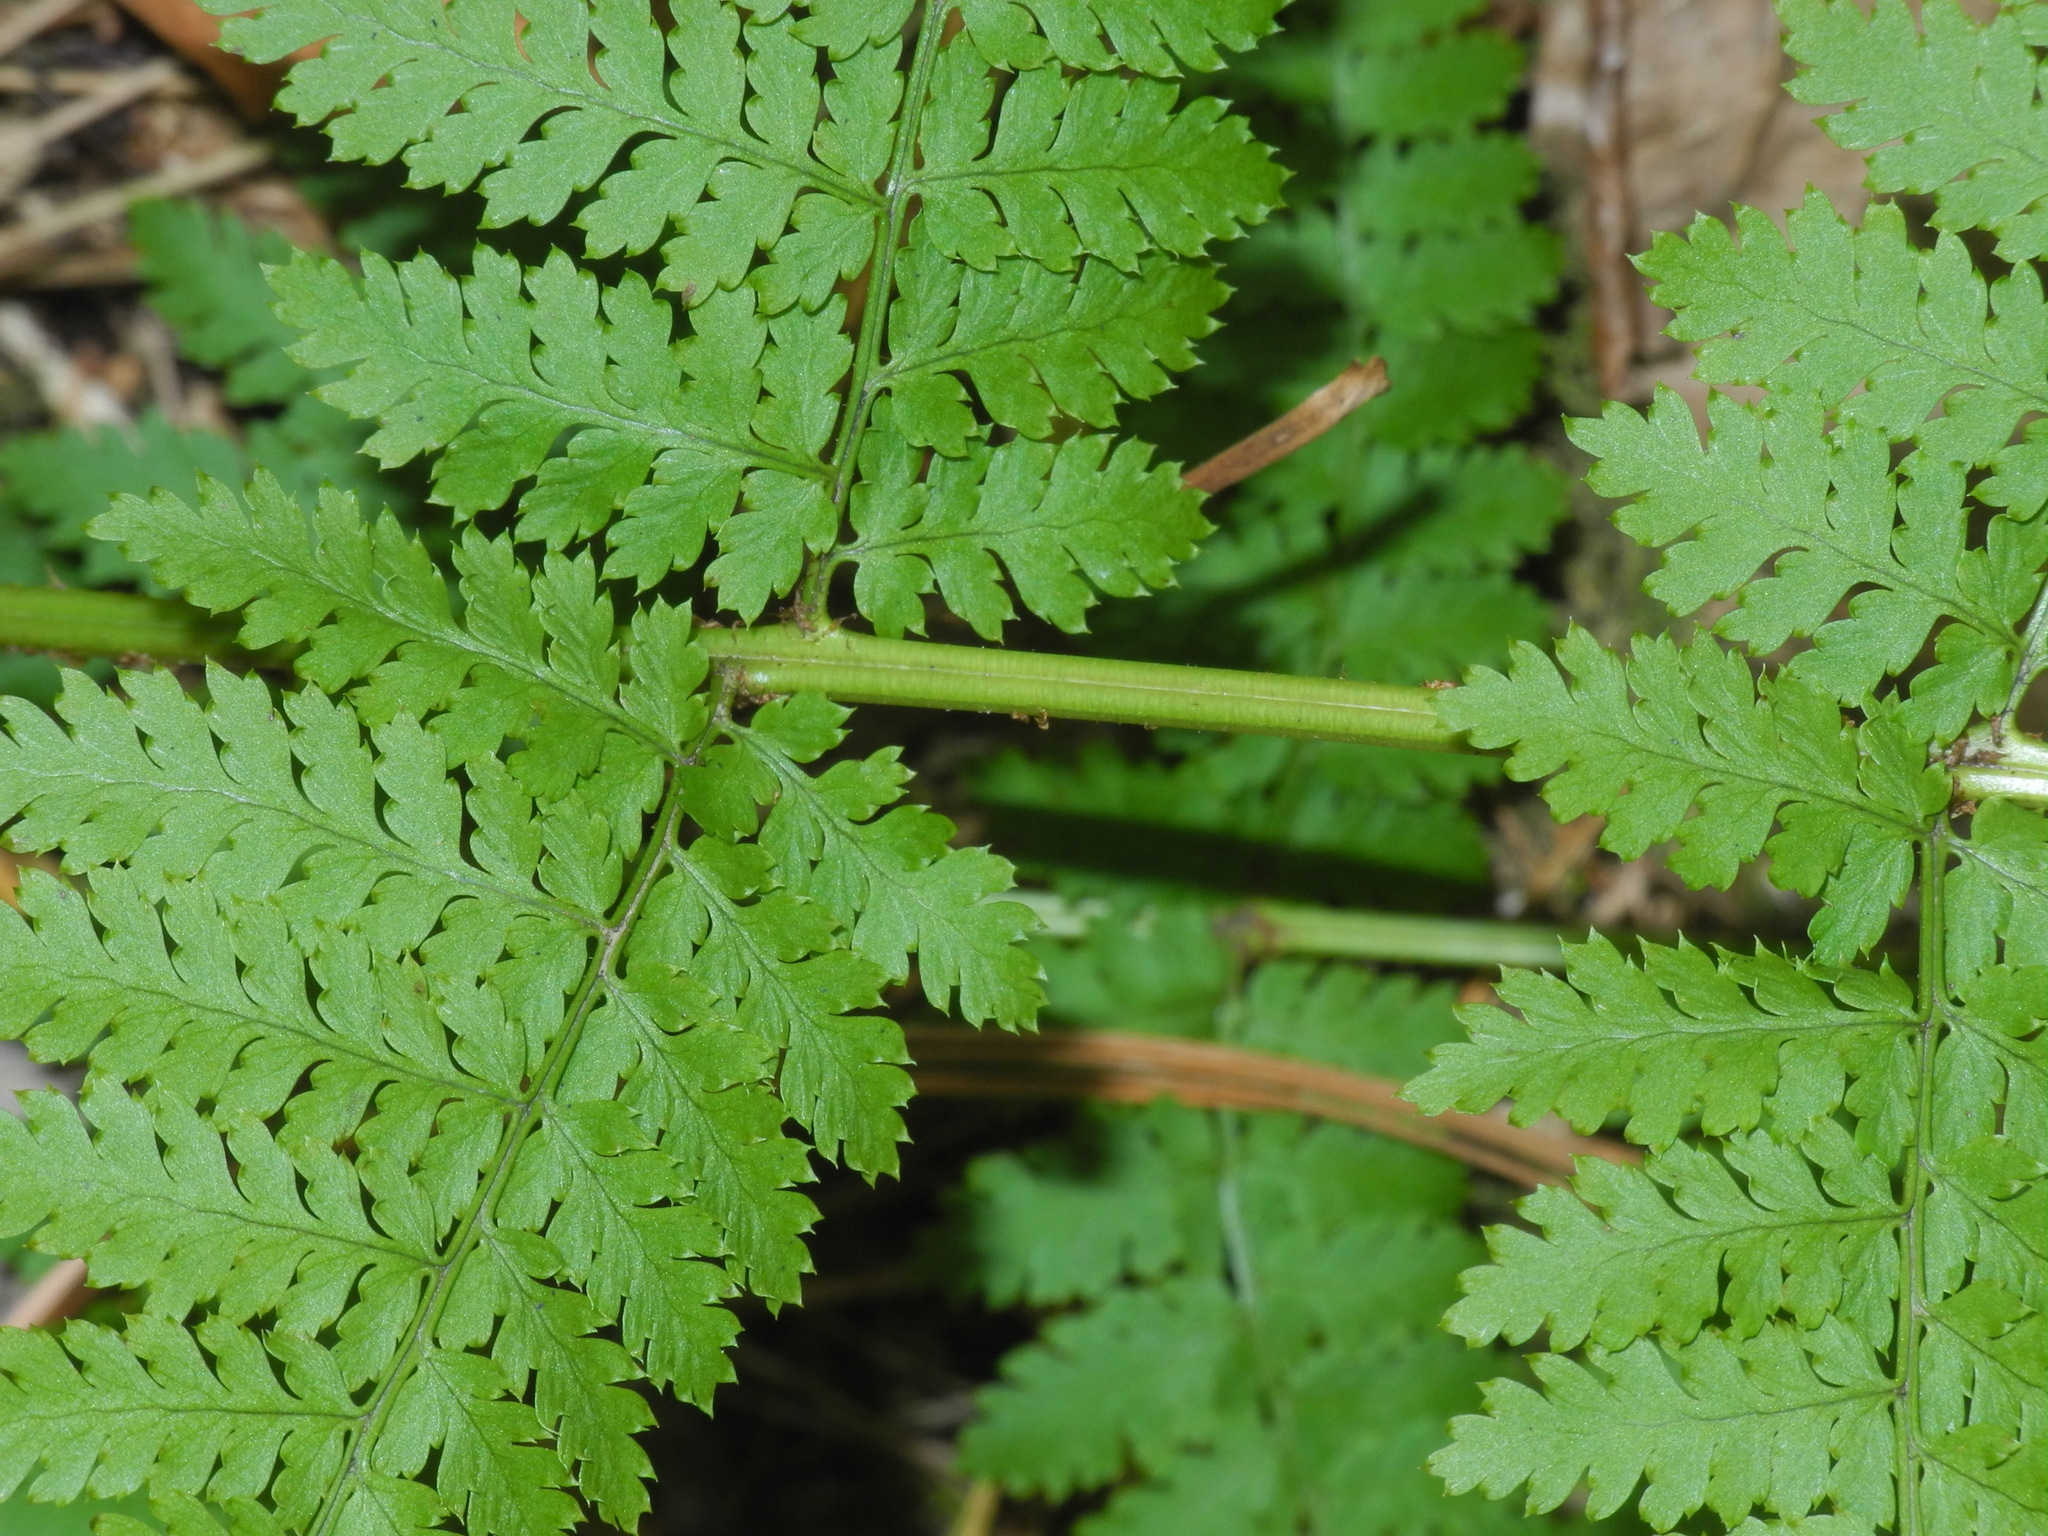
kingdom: Plantae
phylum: Tracheophyta
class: Polypodiopsida
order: Polypodiales
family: Dryopteridaceae
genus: Dryopteris
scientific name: Dryopteris intermedia
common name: Evergreen wood fern
